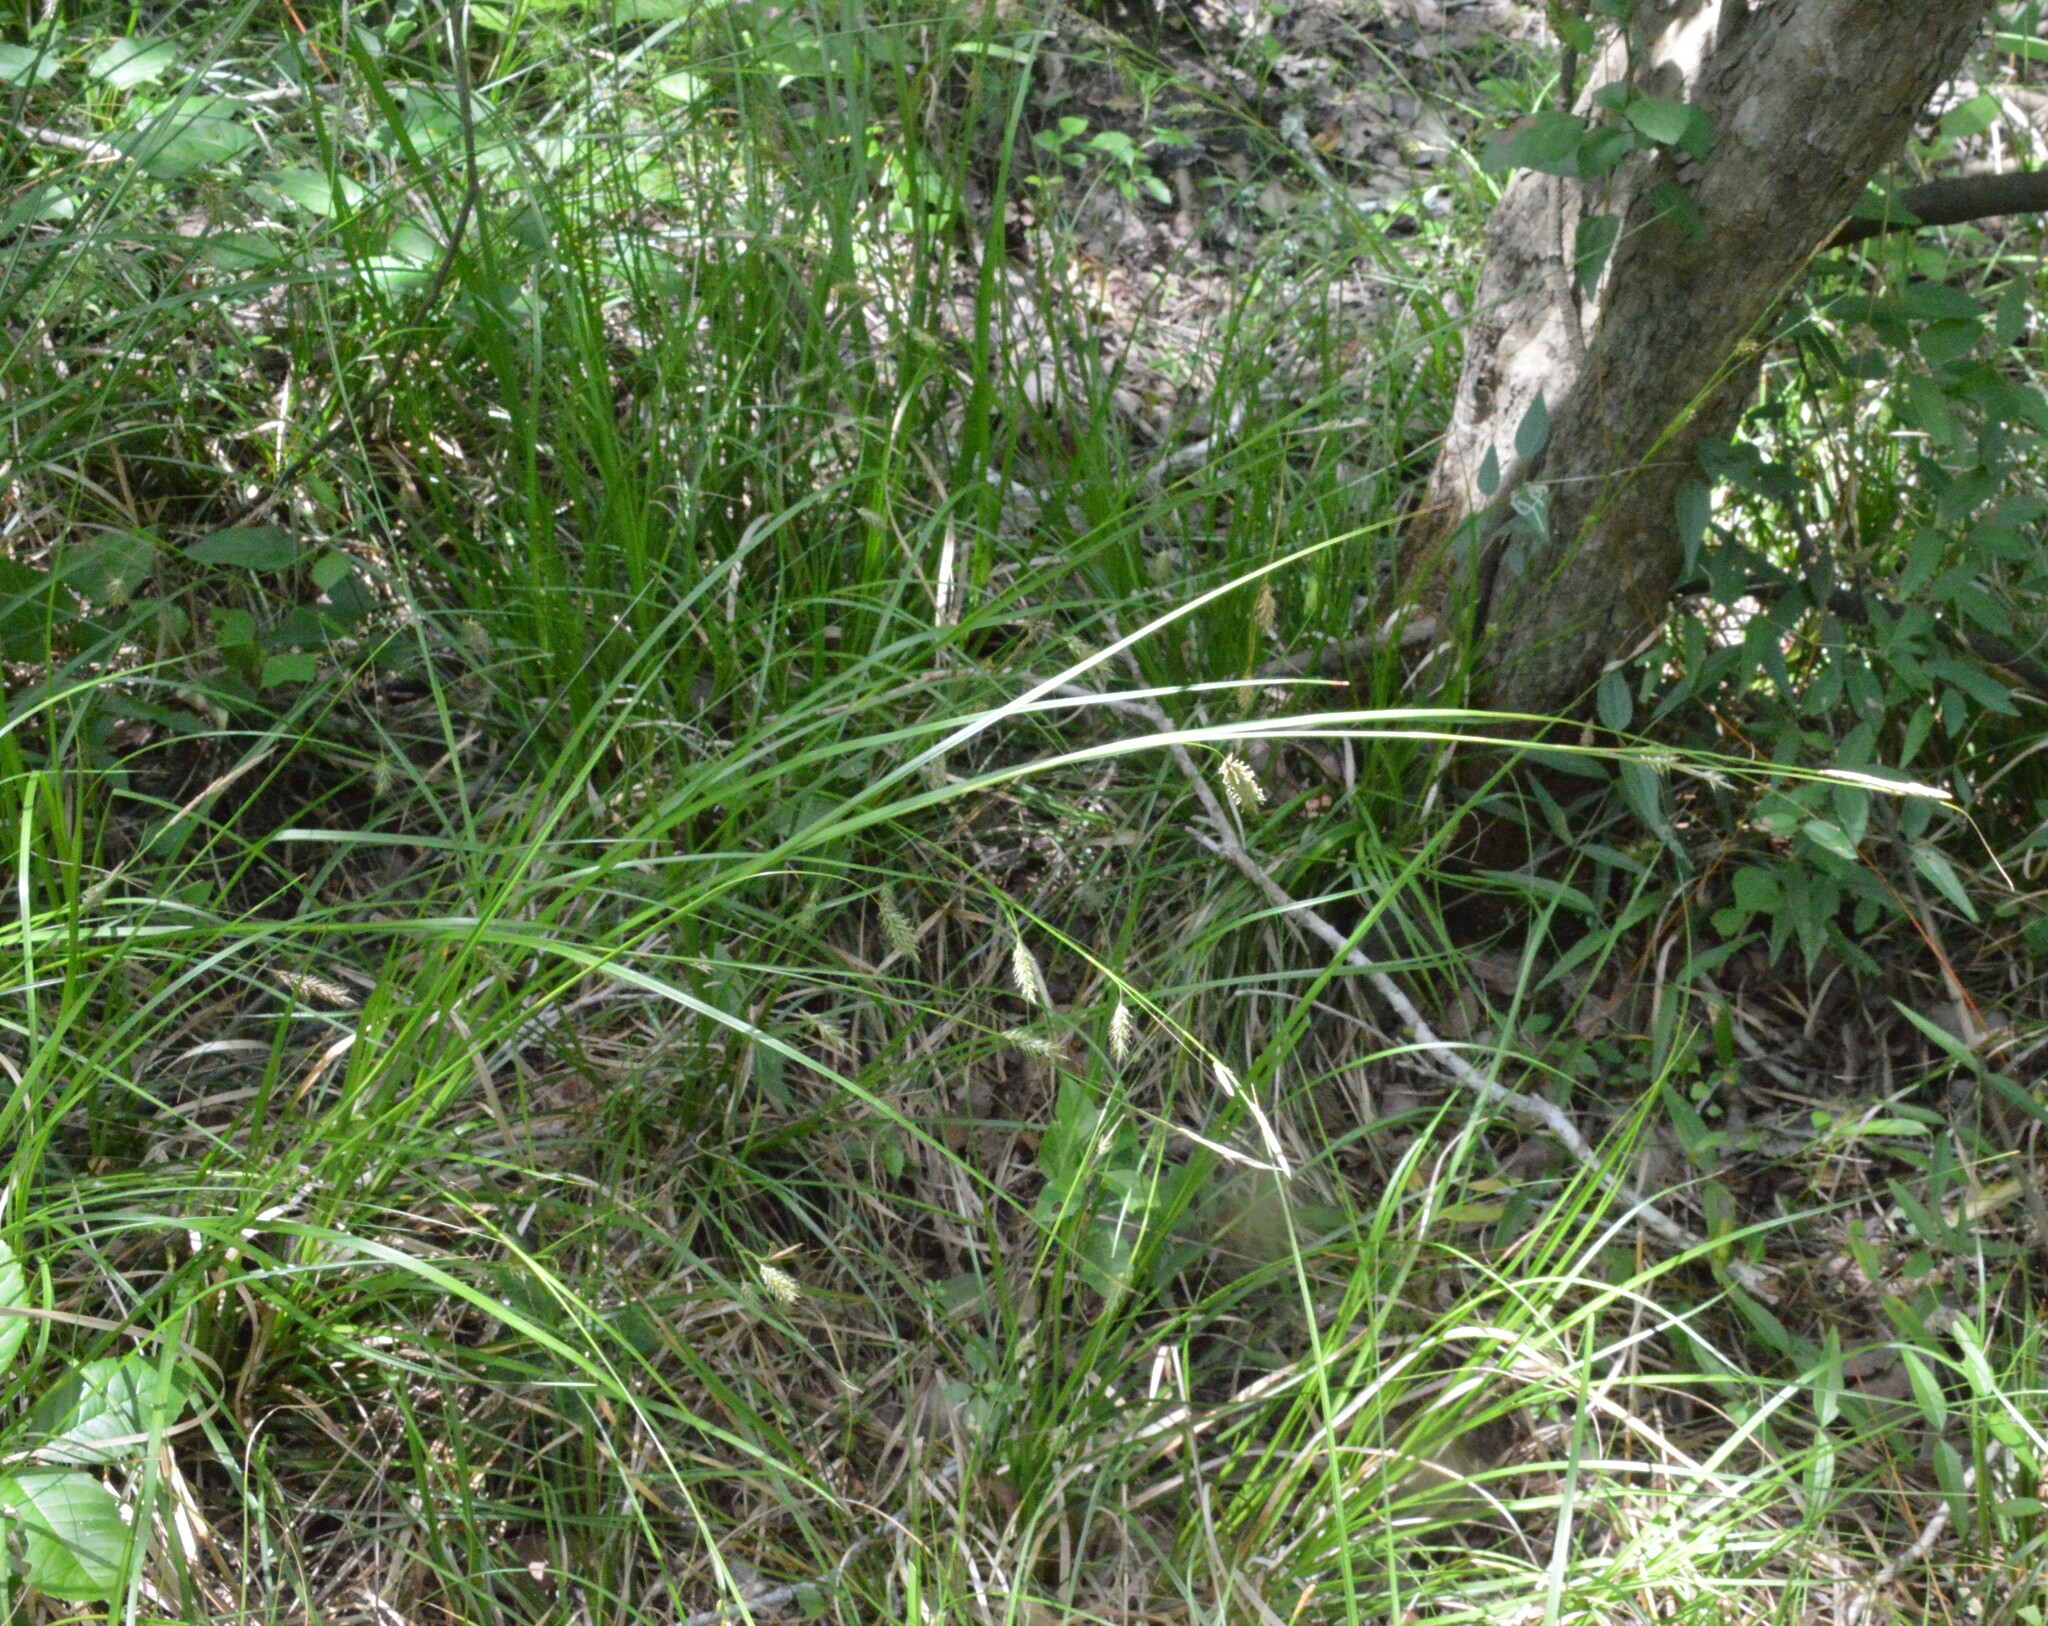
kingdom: Plantae
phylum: Tracheophyta
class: Liliopsida
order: Poales
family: Cyperaceae
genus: Carex
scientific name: Carex cherokeensis
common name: Cherokee sedge
